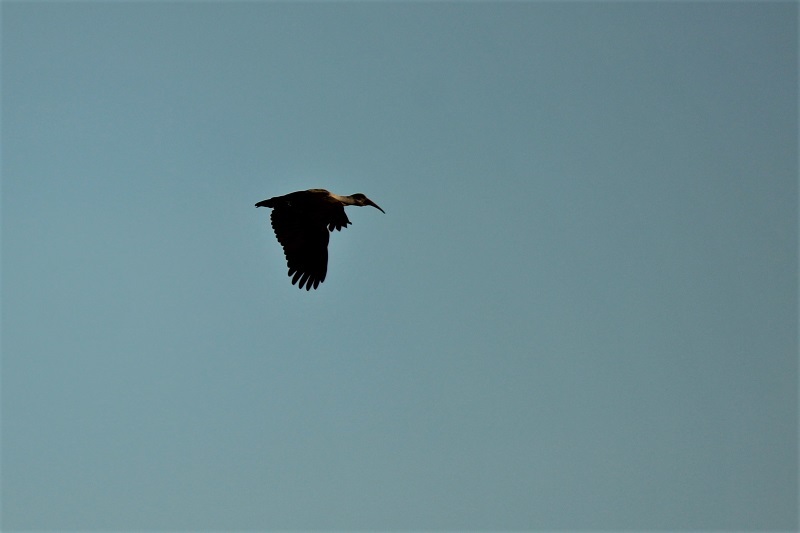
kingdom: Animalia
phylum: Chordata
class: Aves
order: Pelecaniformes
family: Threskiornithidae
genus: Bostrychia
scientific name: Bostrychia hagedash
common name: Hadada ibis
